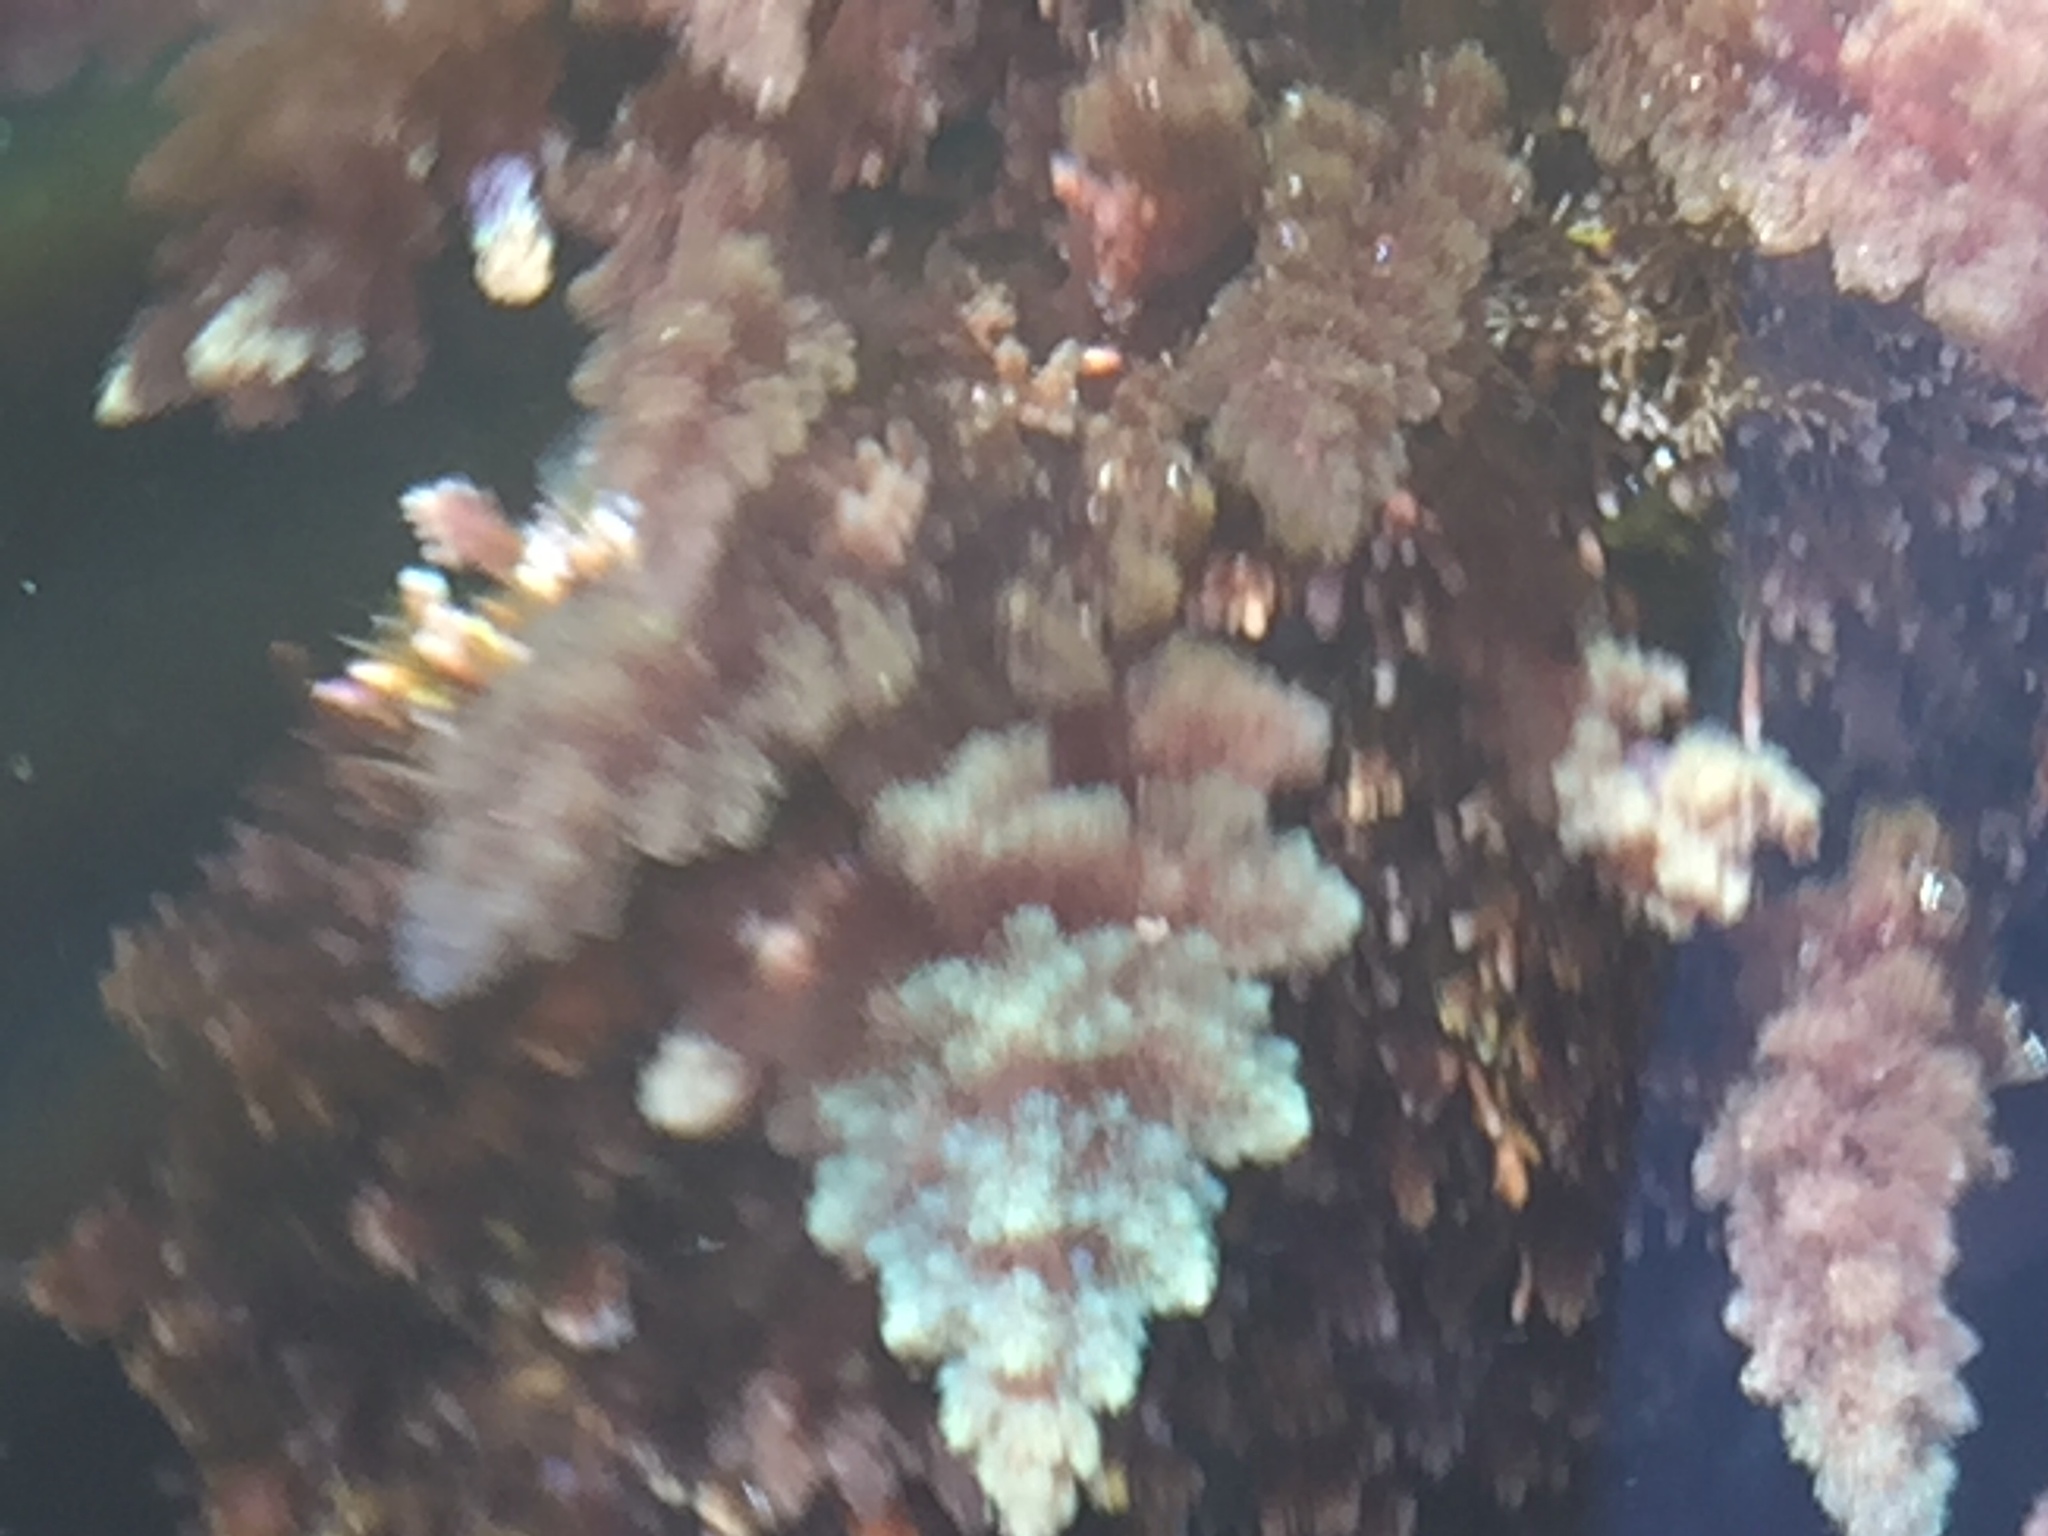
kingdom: Plantae
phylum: Rhodophyta
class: Florideophyceae
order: Bonnemaisoniales
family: Bonnemaisoniaceae
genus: Asparagopsis
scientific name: Asparagopsis taxiformis
